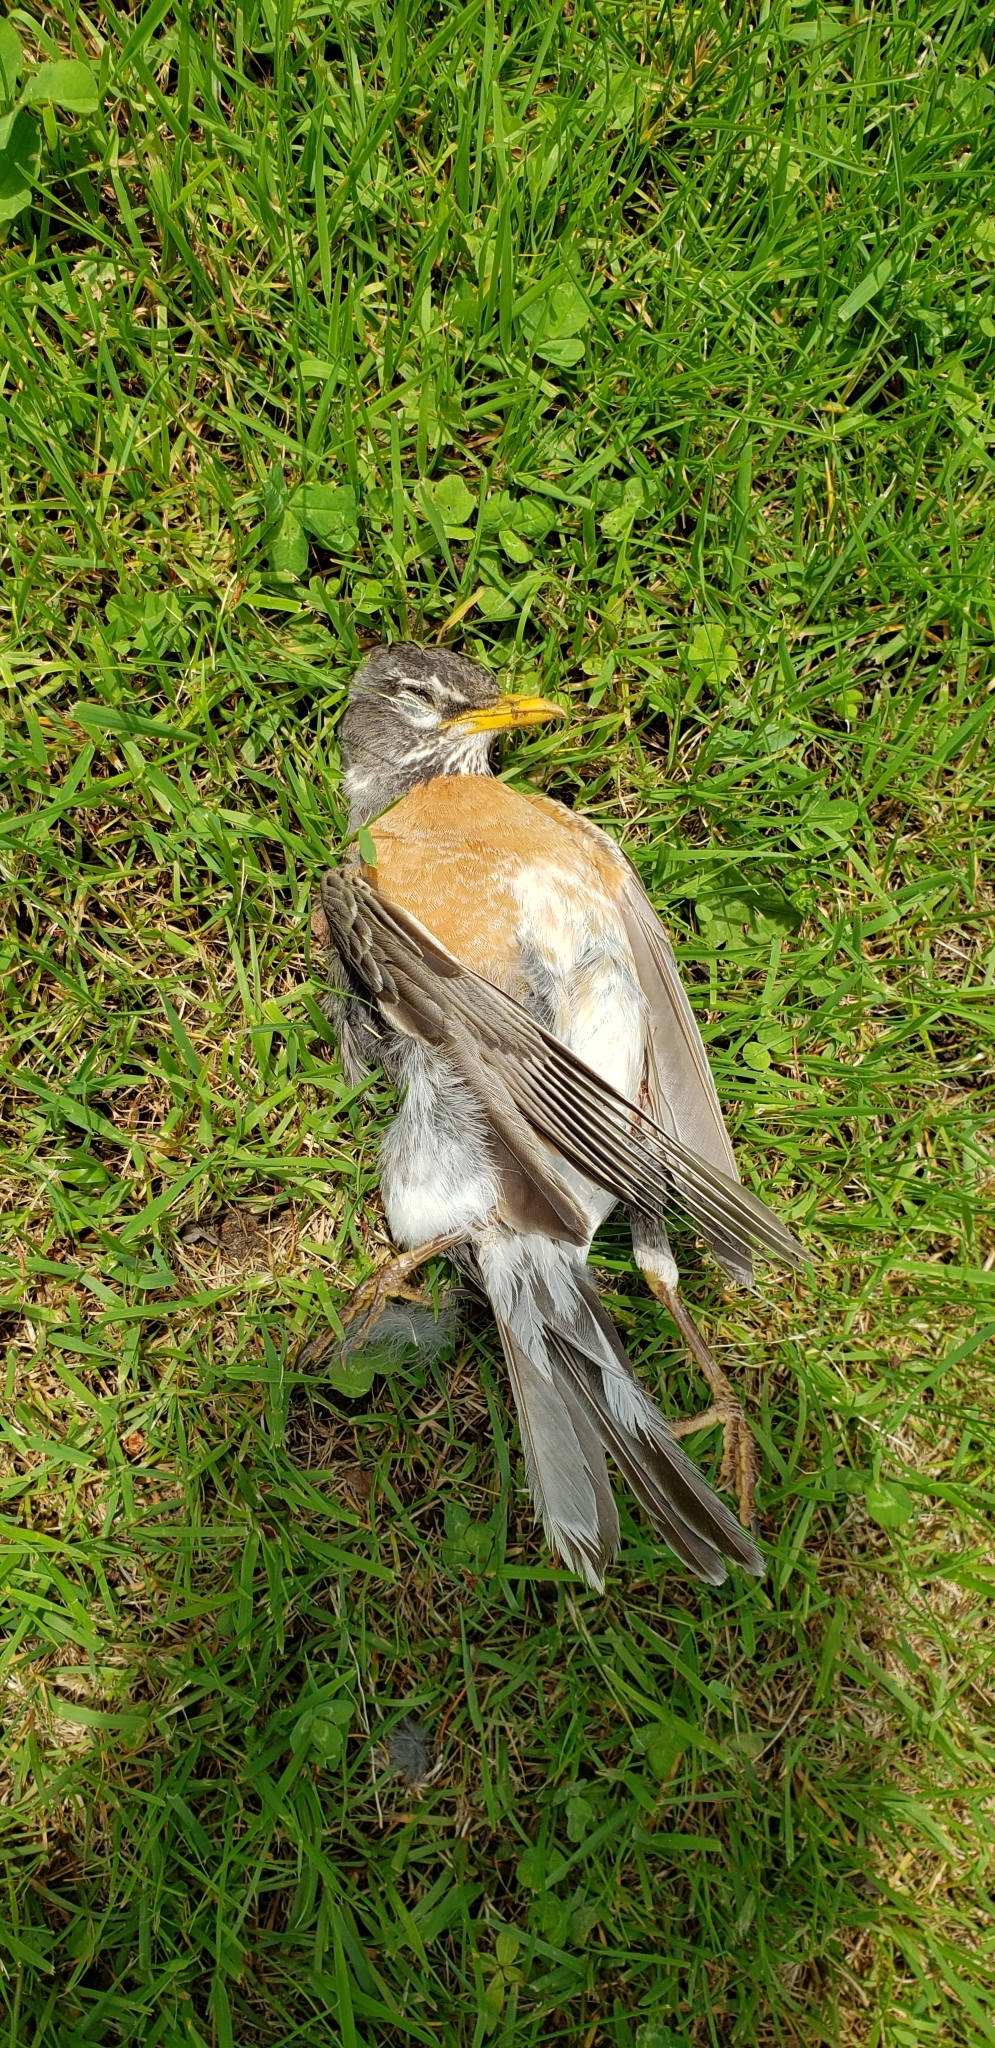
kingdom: Animalia
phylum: Chordata
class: Aves
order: Passeriformes
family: Turdidae
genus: Turdus
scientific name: Turdus migratorius
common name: American robin
